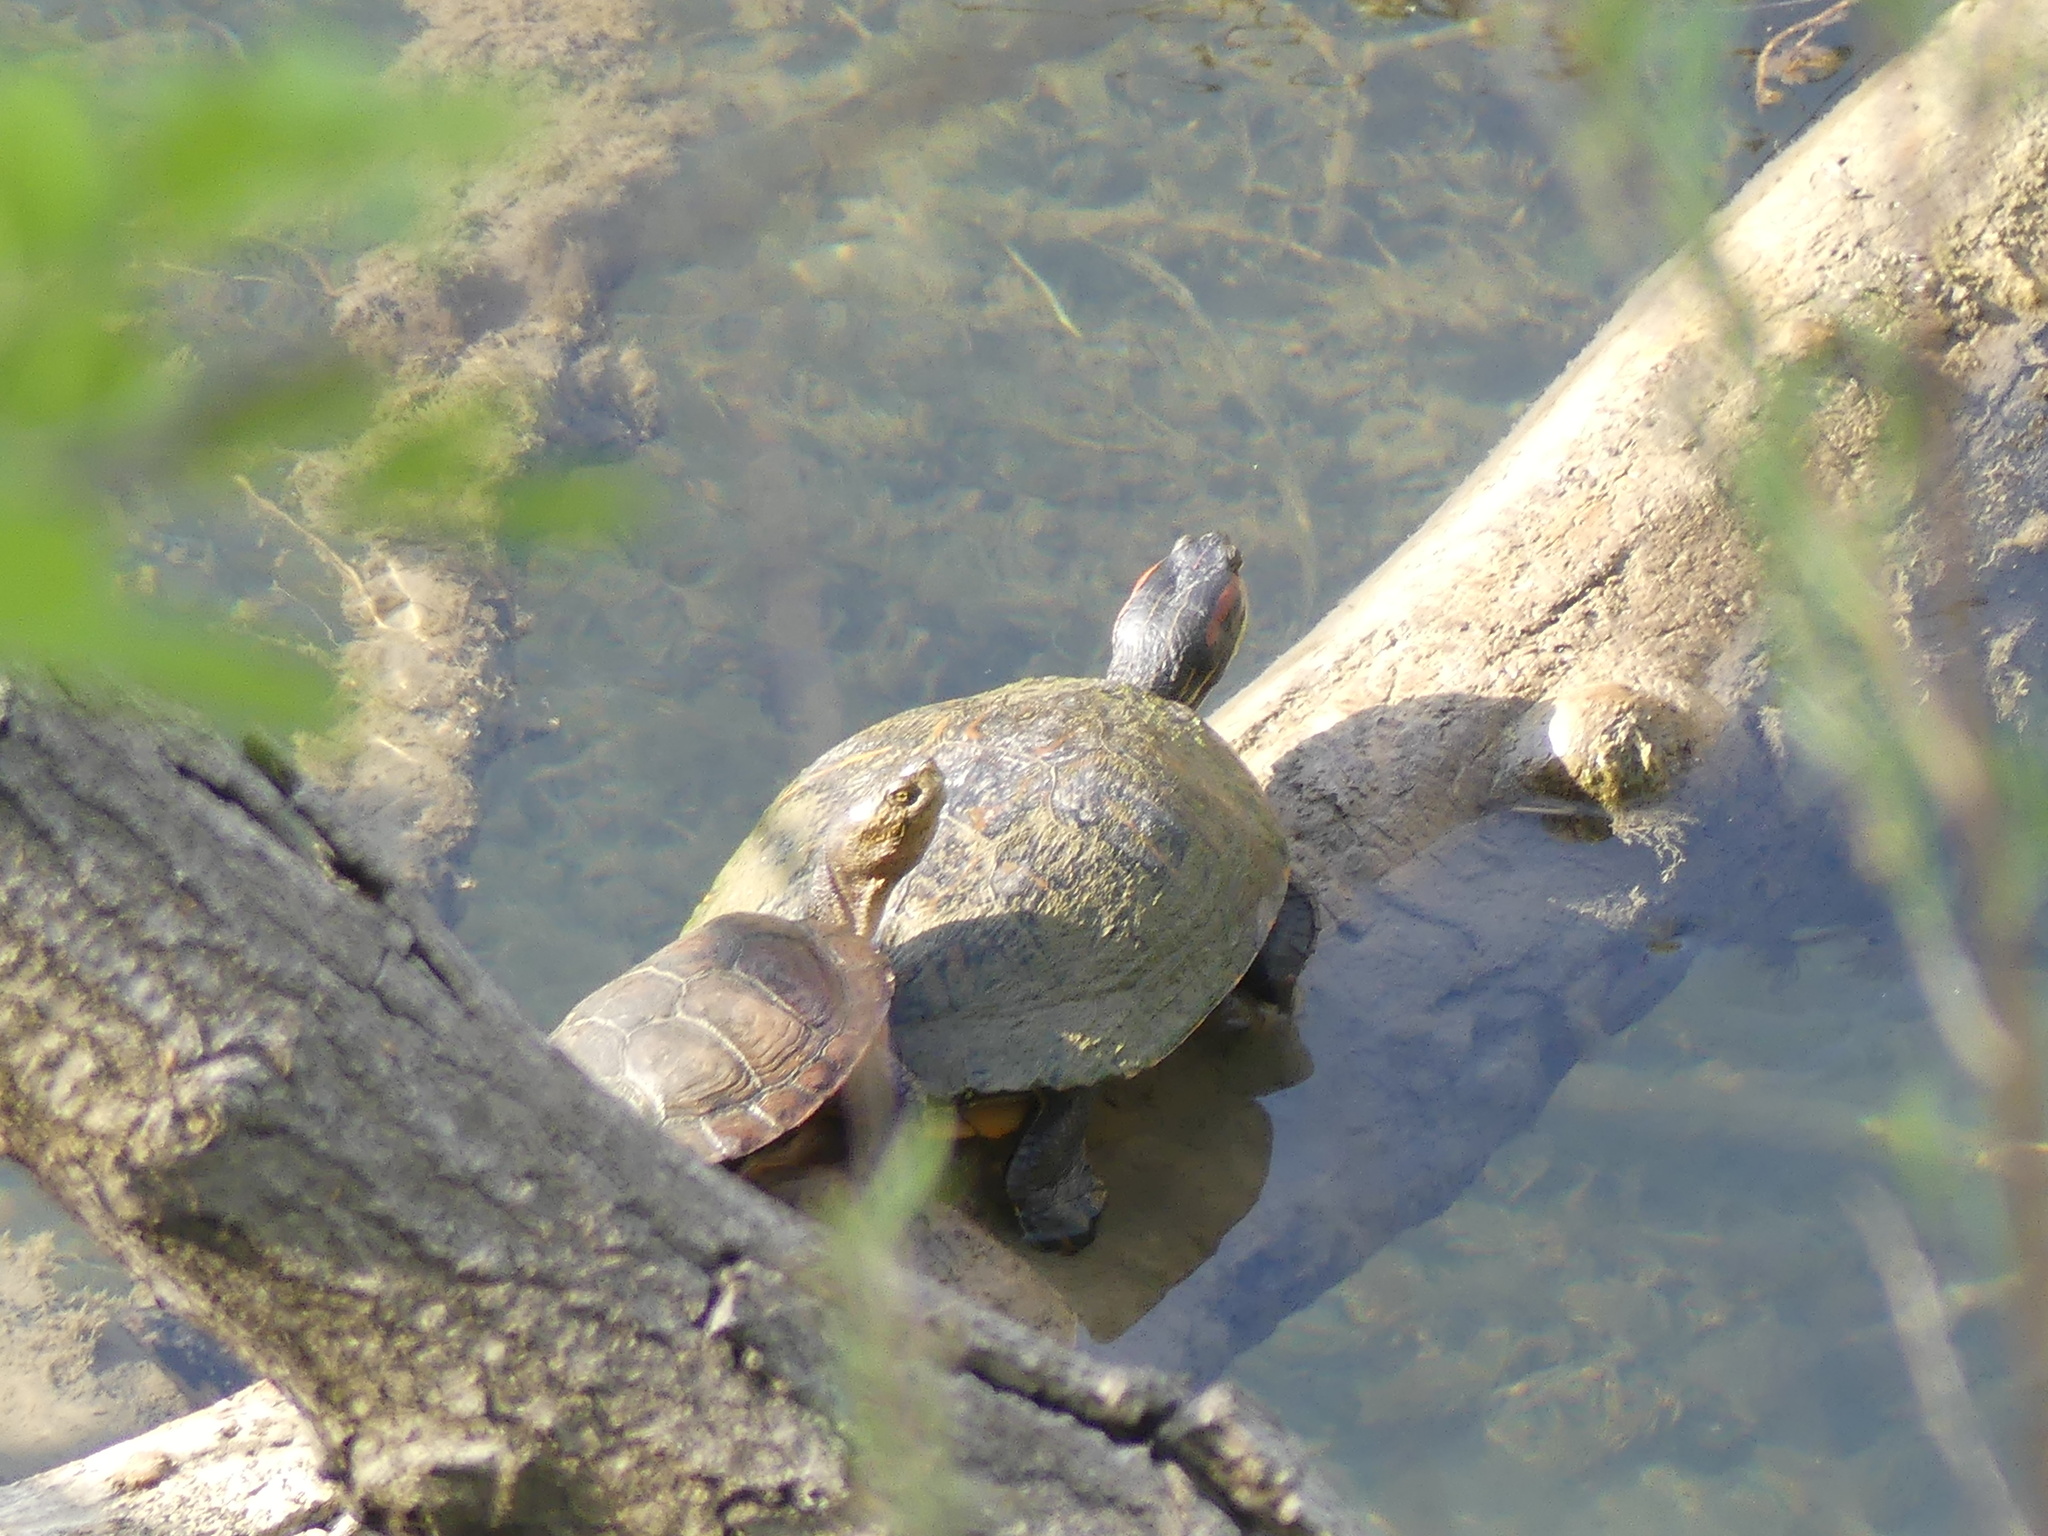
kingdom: Animalia
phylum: Chordata
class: Testudines
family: Emydidae
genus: Trachemys
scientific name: Trachemys scripta
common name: Slider
